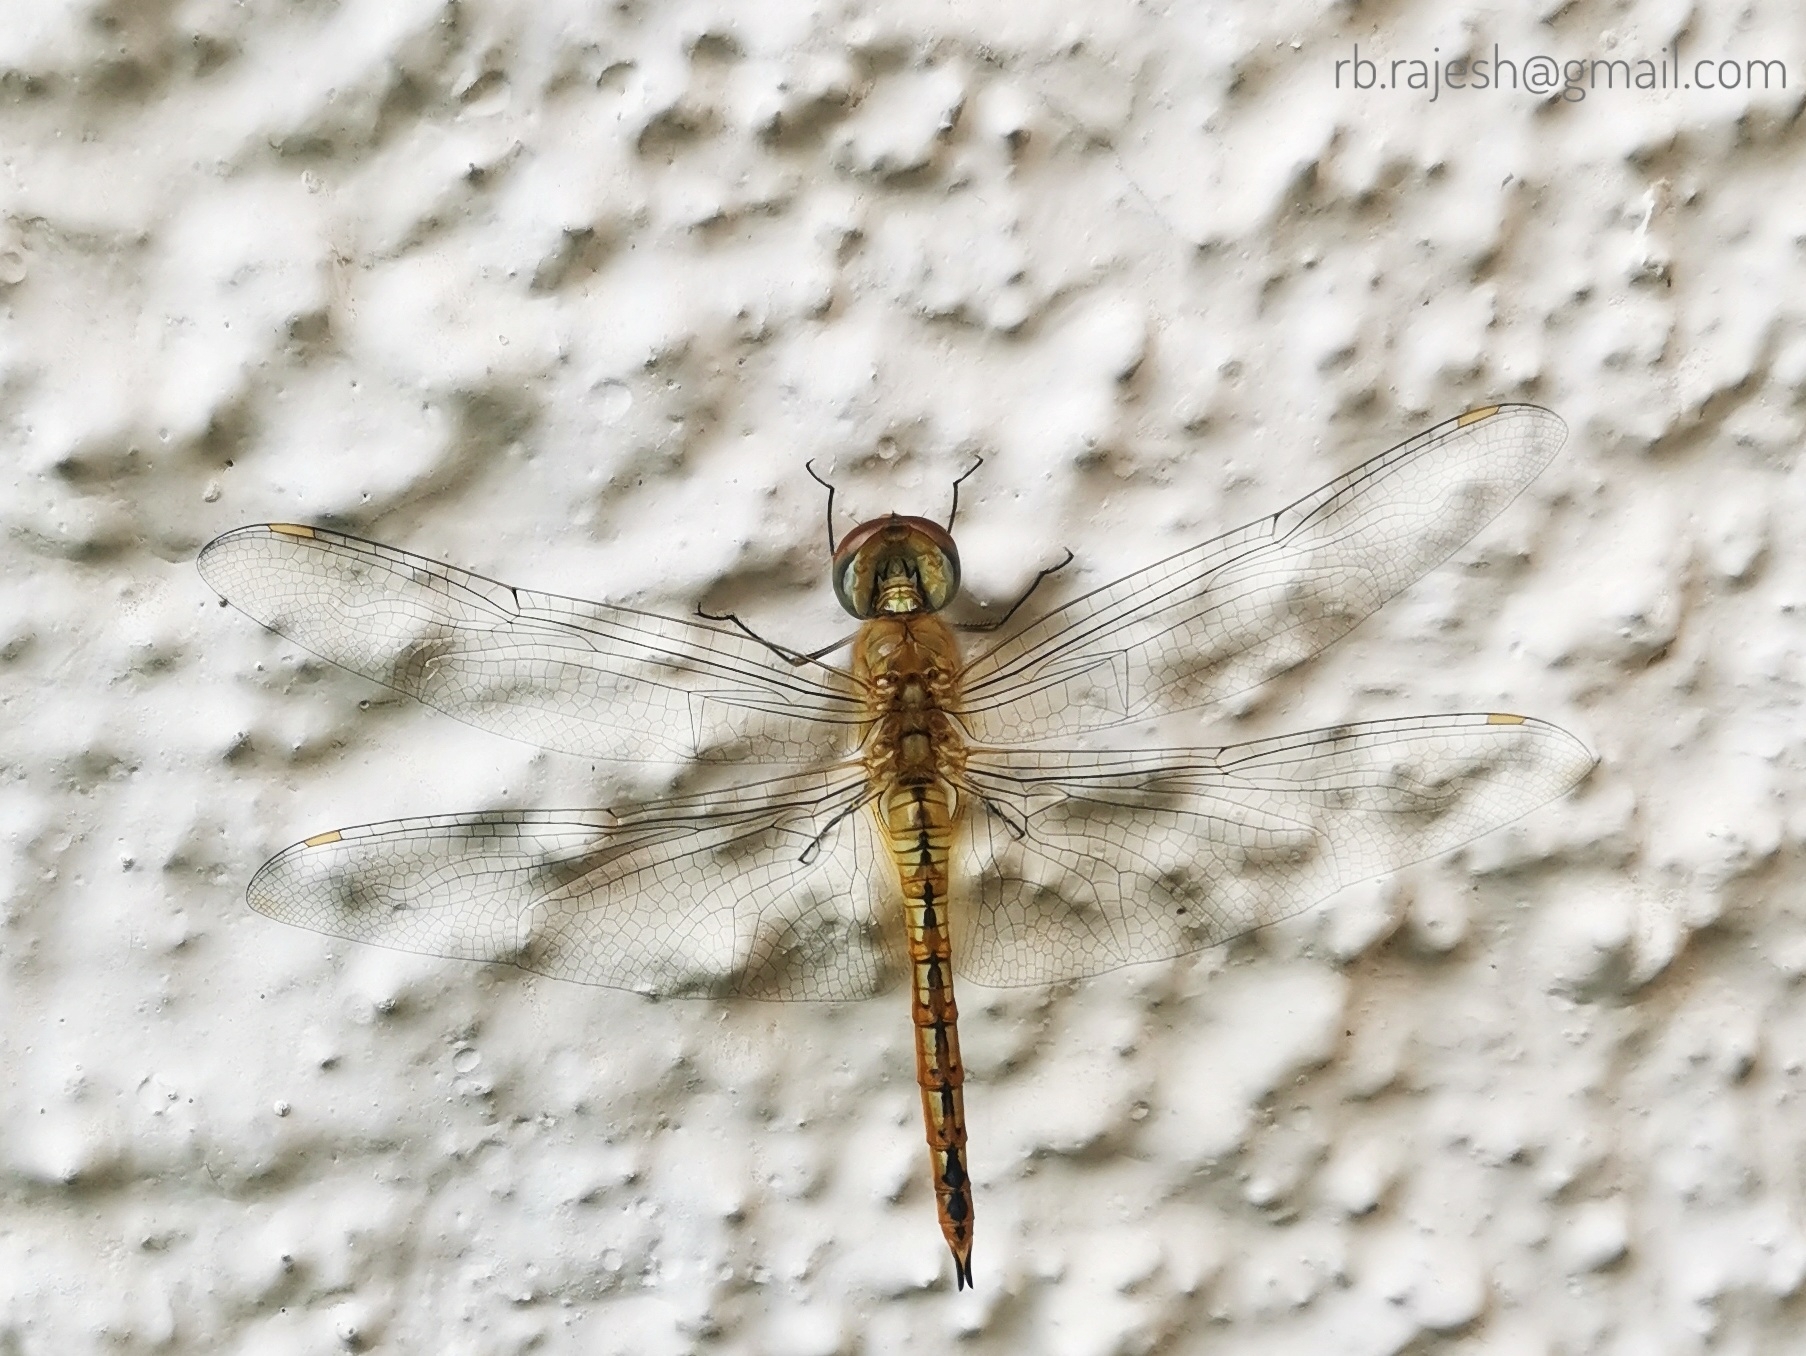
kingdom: Animalia
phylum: Arthropoda
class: Insecta
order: Odonata
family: Libellulidae
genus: Pantala
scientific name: Pantala flavescens
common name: Wandering glider
